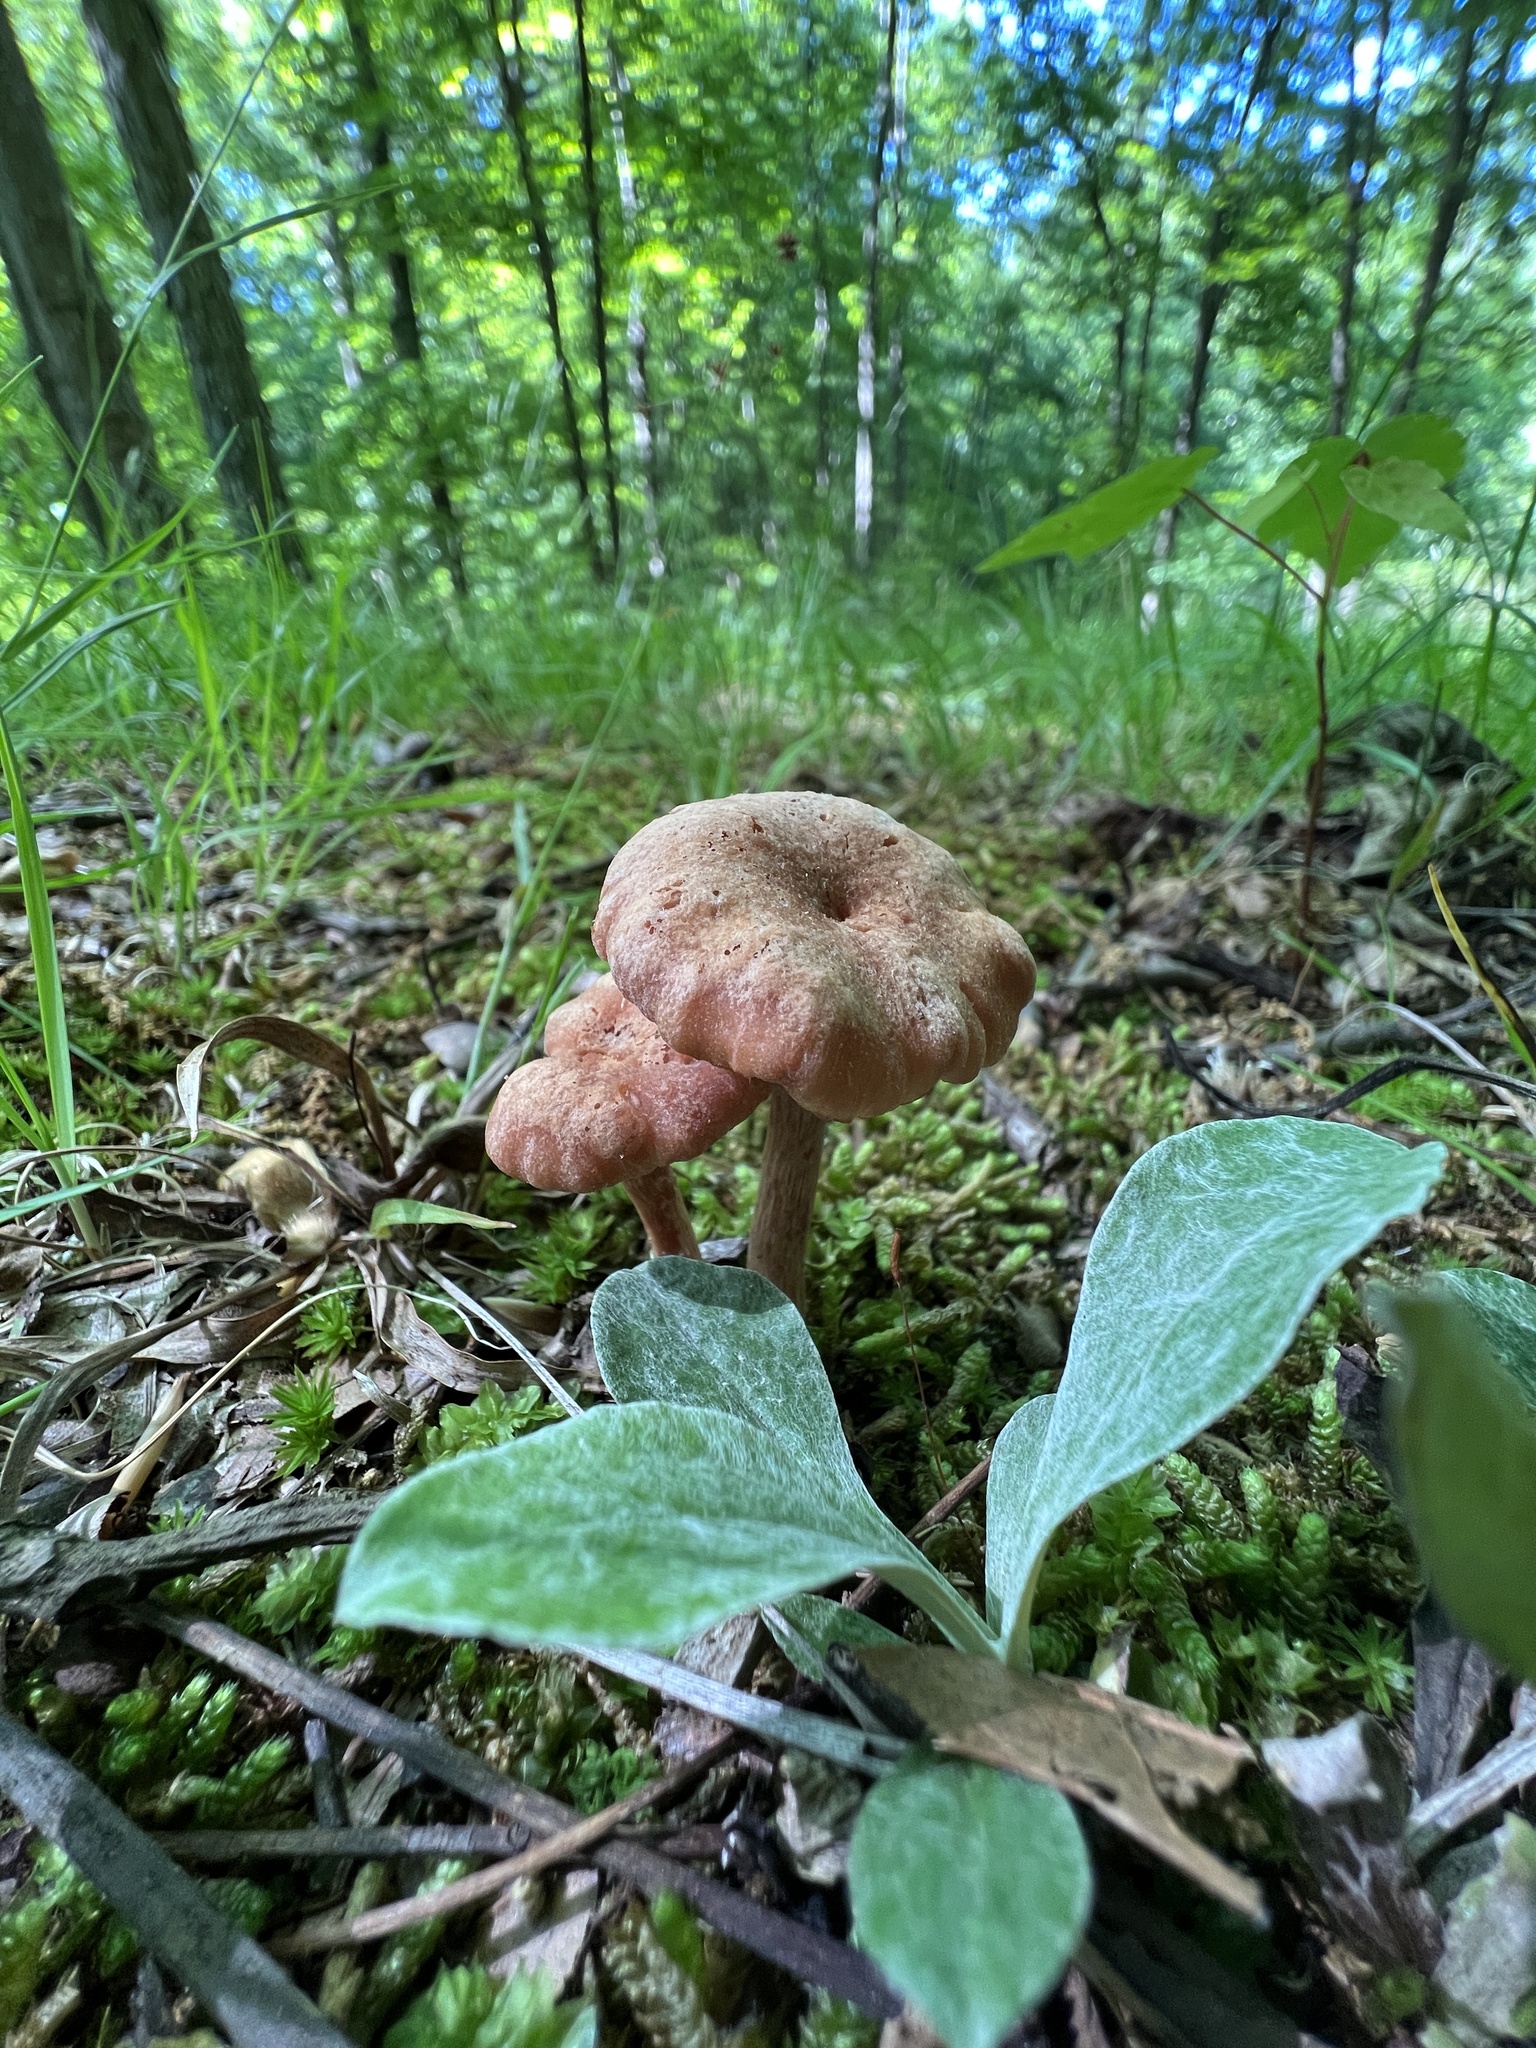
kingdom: Fungi
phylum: Basidiomycota
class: Agaricomycetes
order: Agaricales
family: Hydnangiaceae
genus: Laccaria
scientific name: Laccaria laccata
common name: Deceiver
